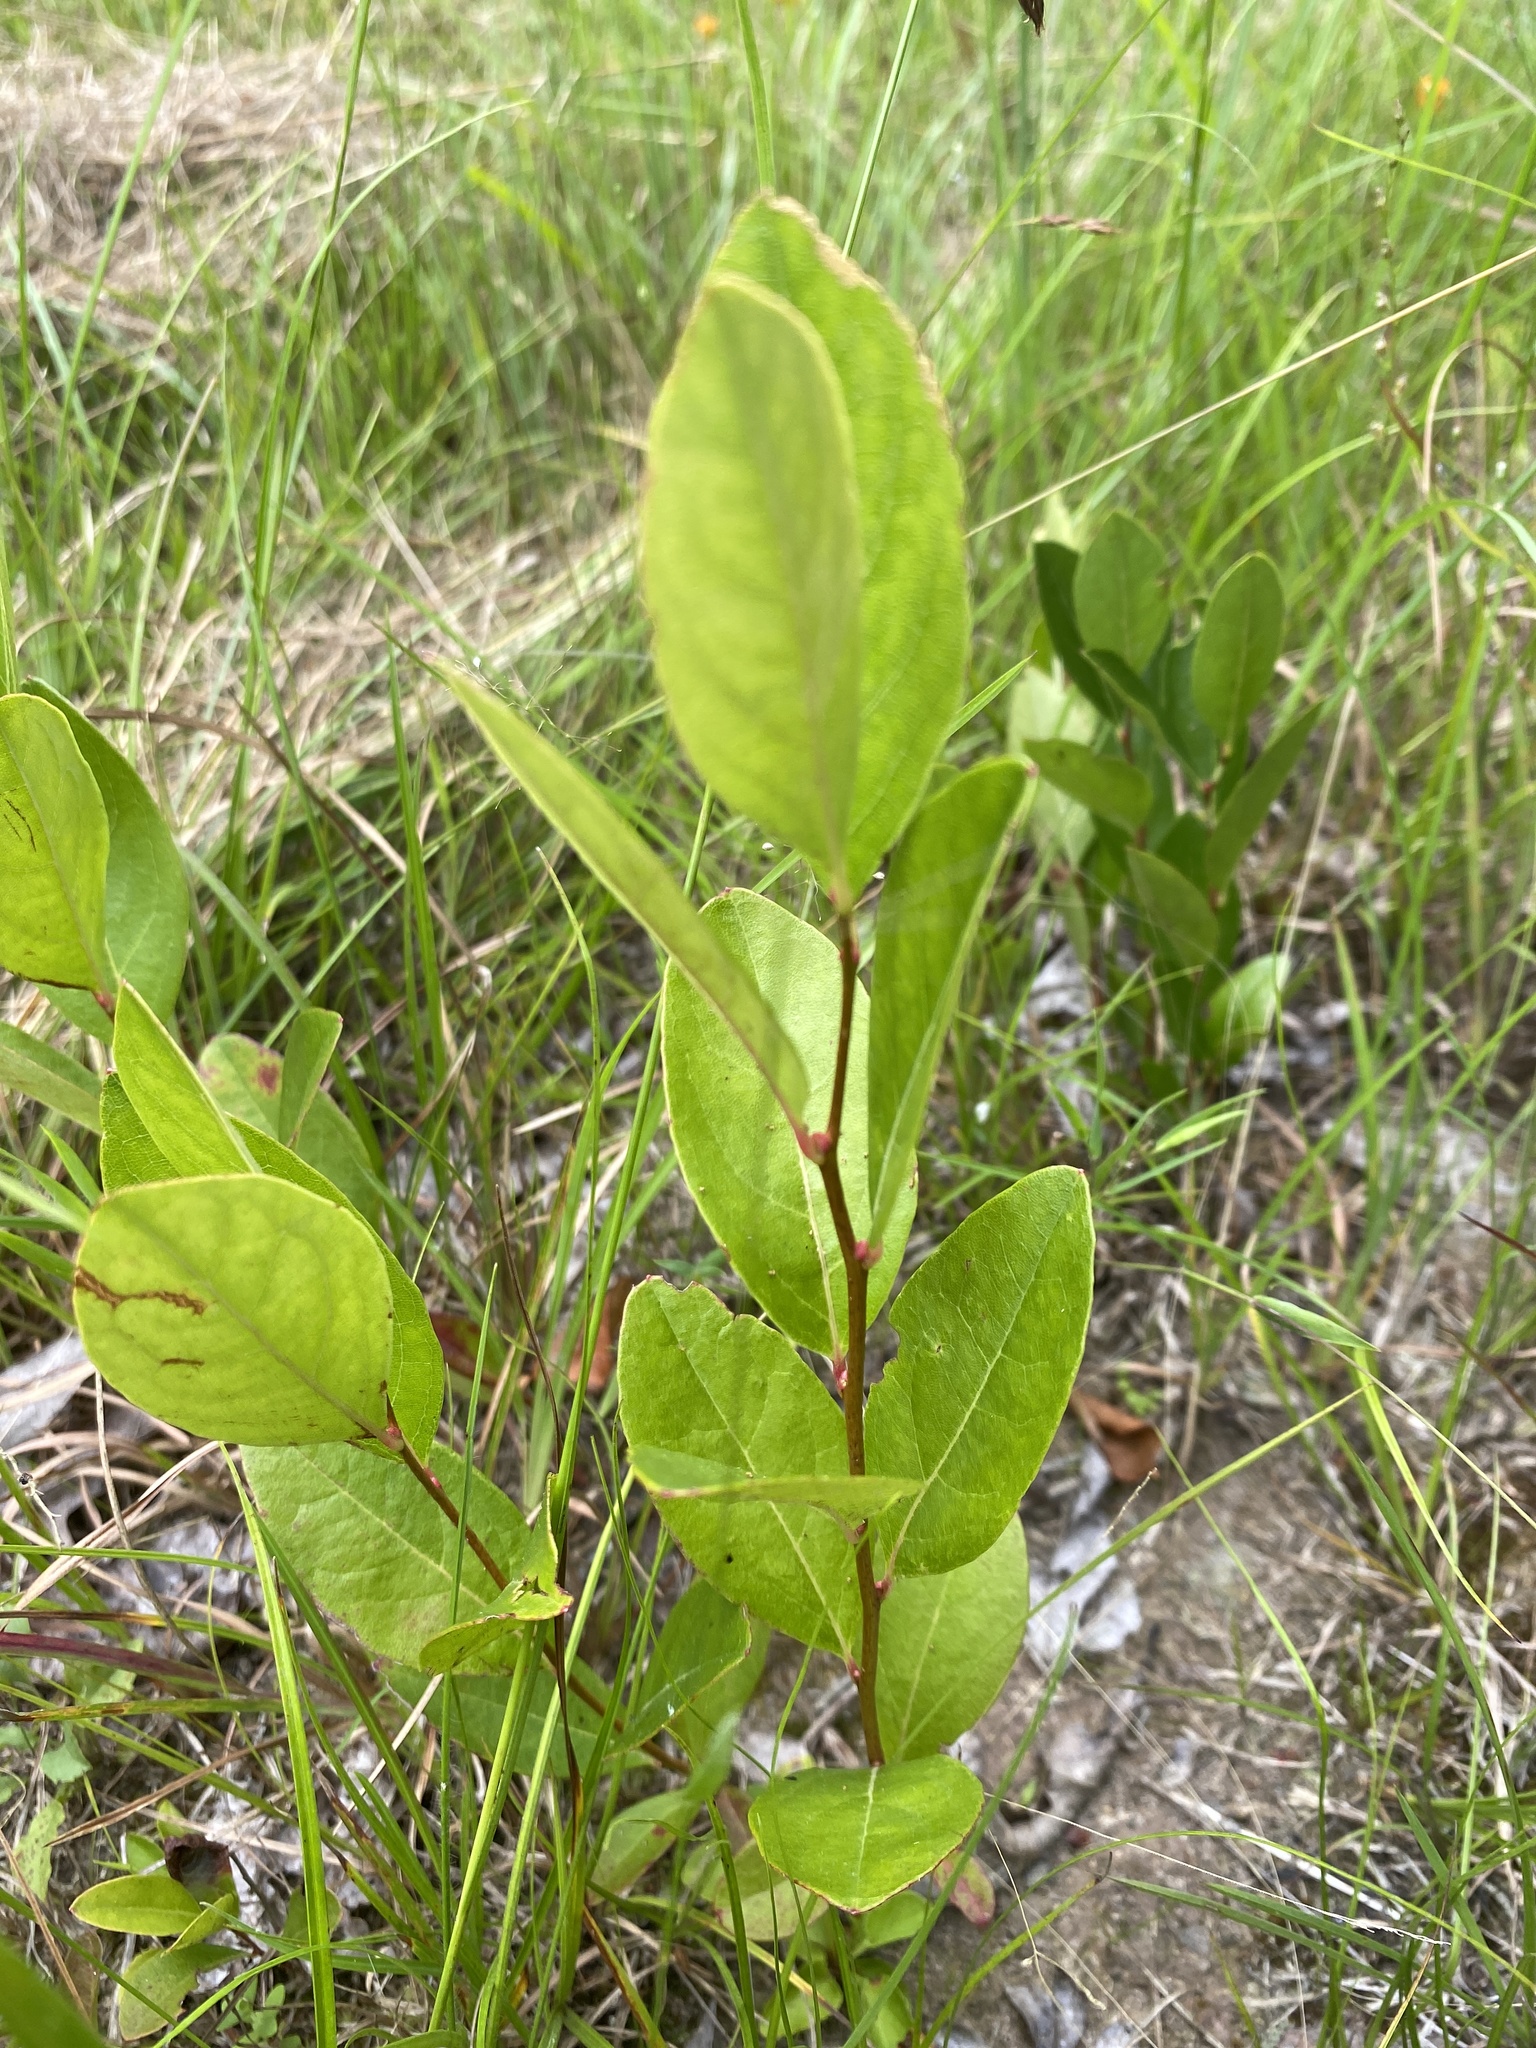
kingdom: Plantae
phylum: Tracheophyta
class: Magnoliopsida
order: Ericales
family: Ericaceae
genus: Lyonia
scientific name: Lyonia mariana
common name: Staggerbush
